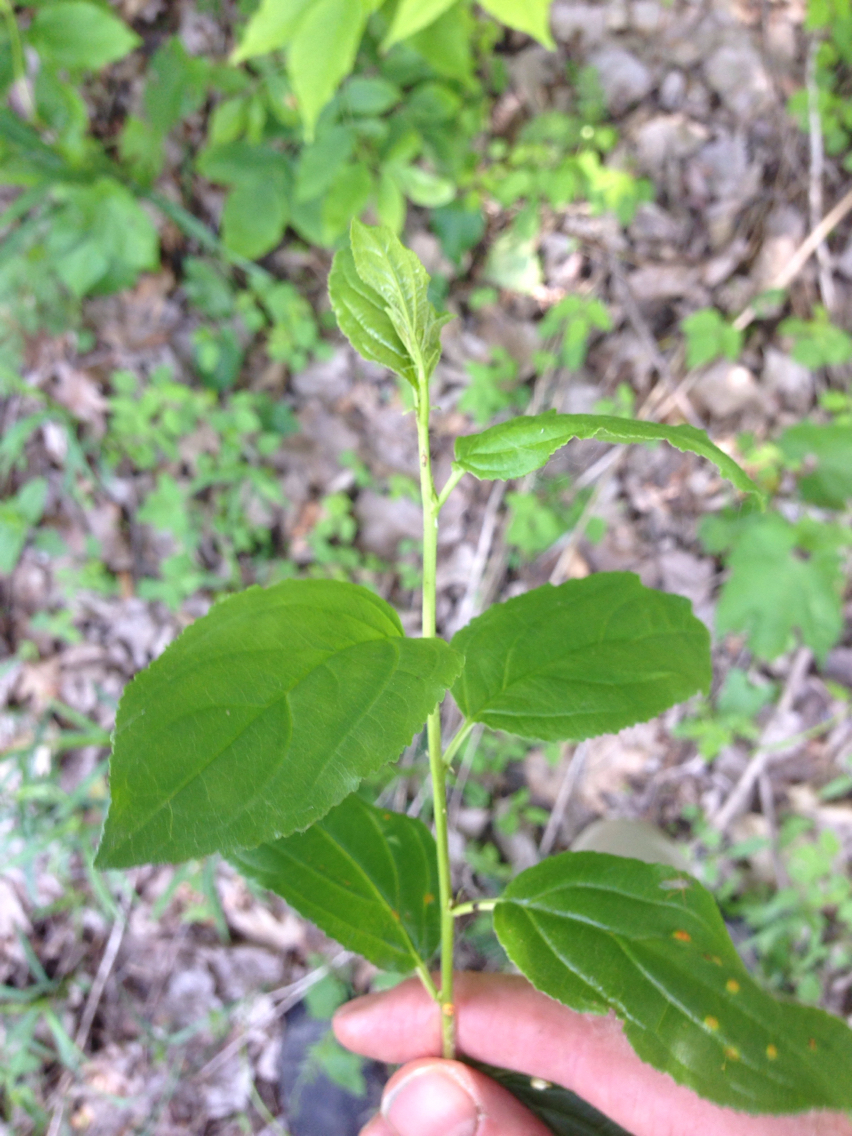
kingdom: Plantae
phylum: Tracheophyta
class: Magnoliopsida
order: Rosales
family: Rhamnaceae
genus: Rhamnus
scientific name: Rhamnus cathartica
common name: Common buckthorn
